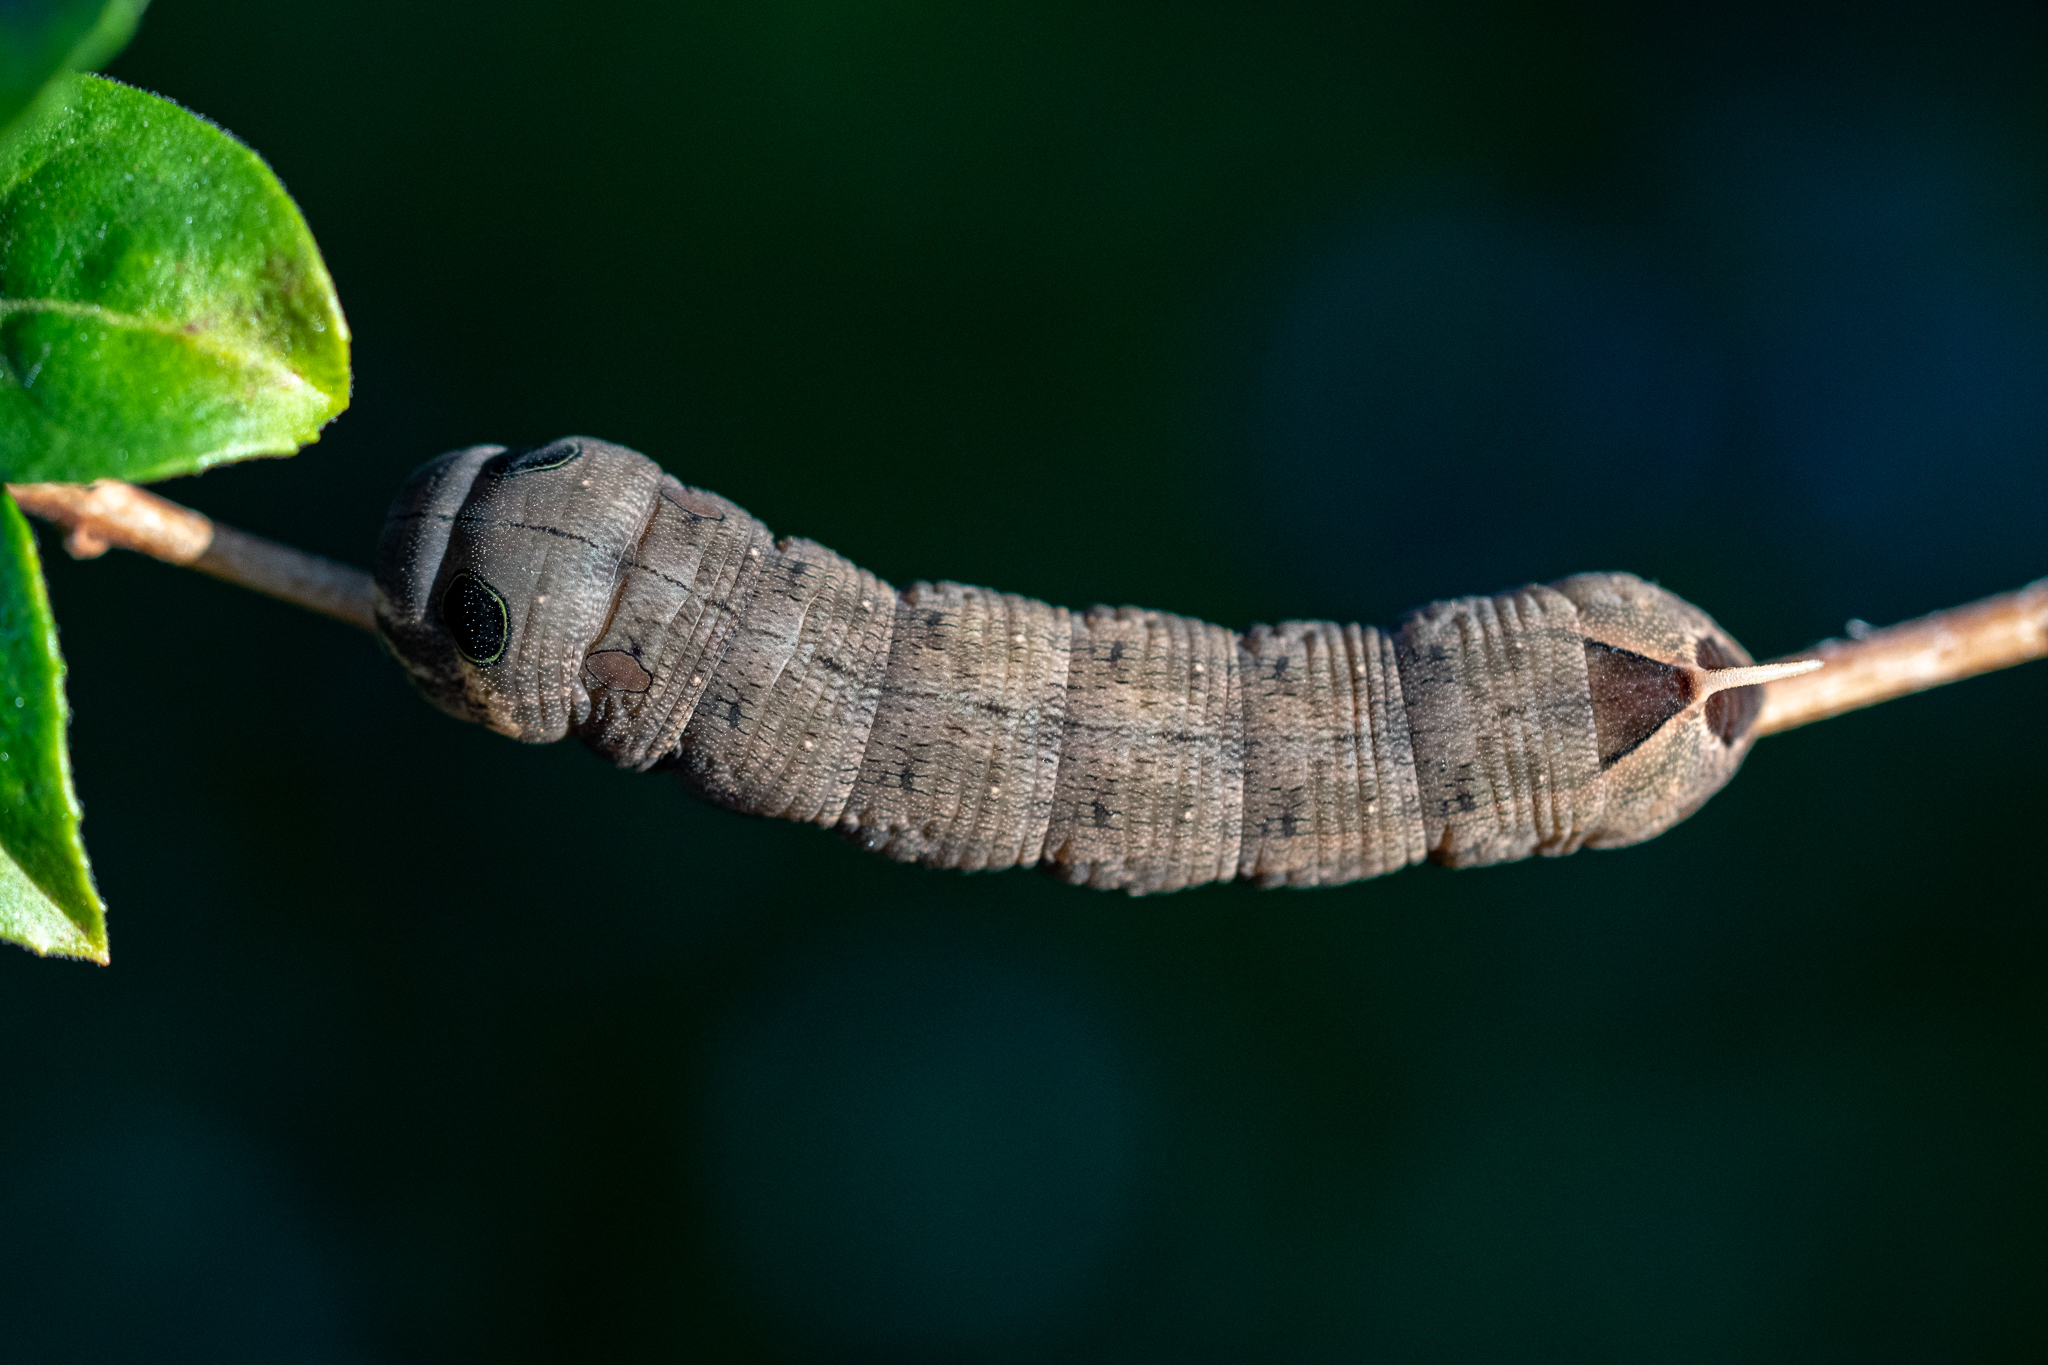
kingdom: Animalia
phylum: Arthropoda
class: Insecta
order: Lepidoptera
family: Sphingidae
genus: Hippotion
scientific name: Hippotion eson
